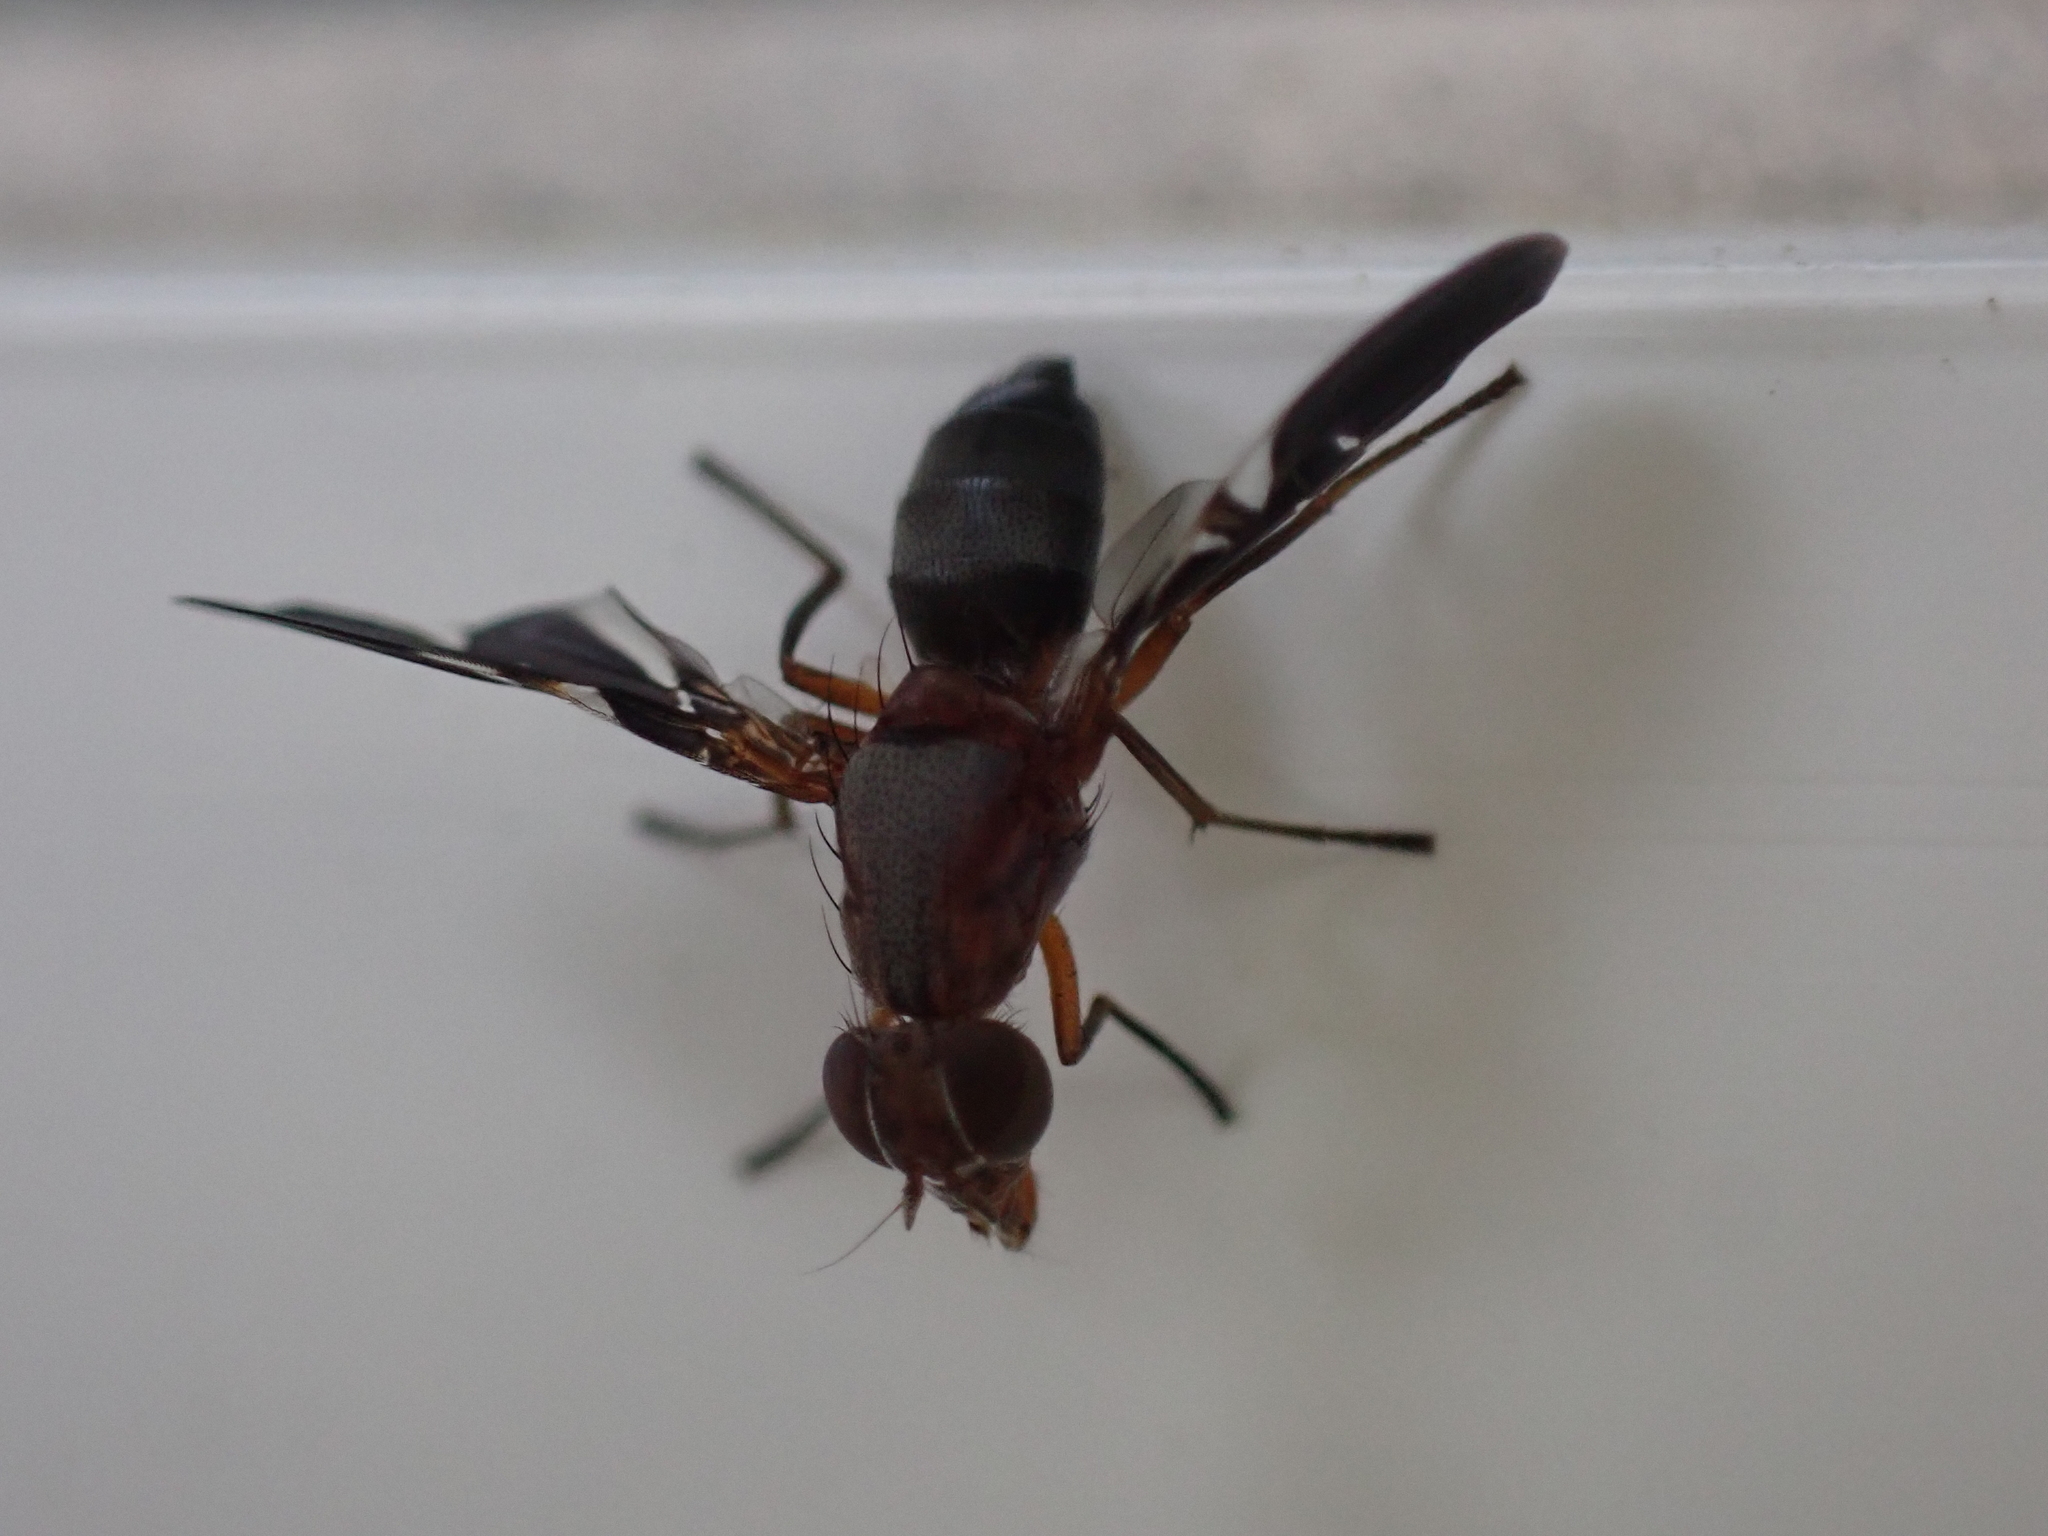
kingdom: Animalia
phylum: Arthropoda
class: Insecta
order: Diptera
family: Ulidiidae
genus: Delphinia
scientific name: Delphinia picta
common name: Common picture-winged fly
